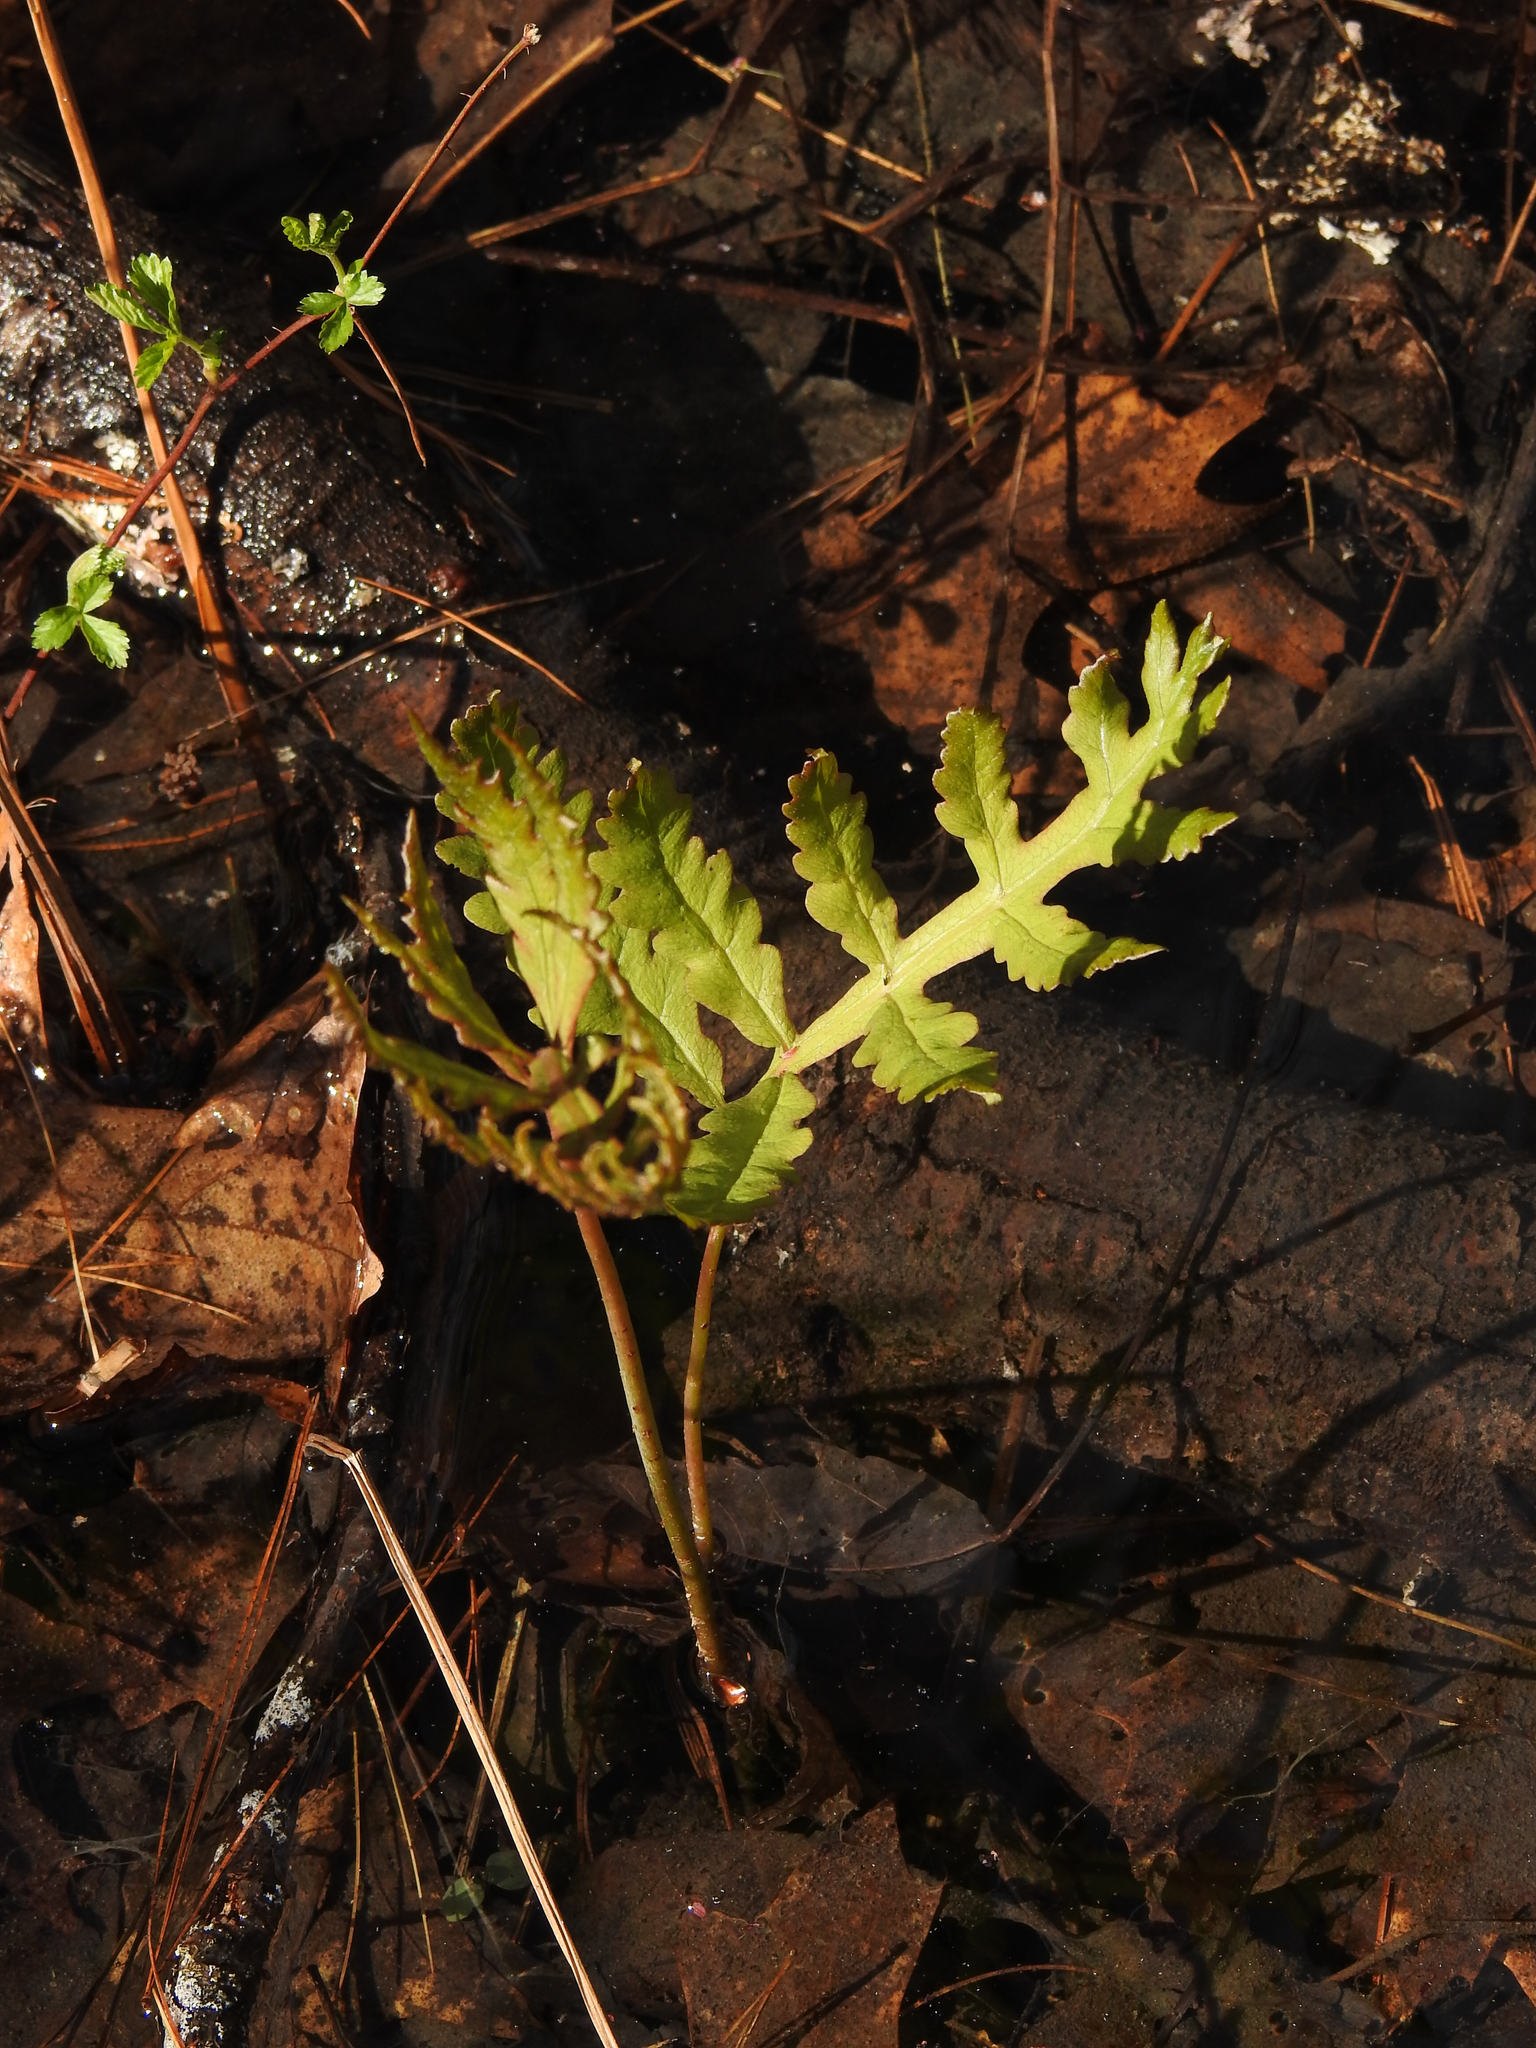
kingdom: Plantae
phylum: Tracheophyta
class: Polypodiopsida
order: Polypodiales
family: Onocleaceae
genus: Onoclea
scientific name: Onoclea sensibilis
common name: Sensitive fern
